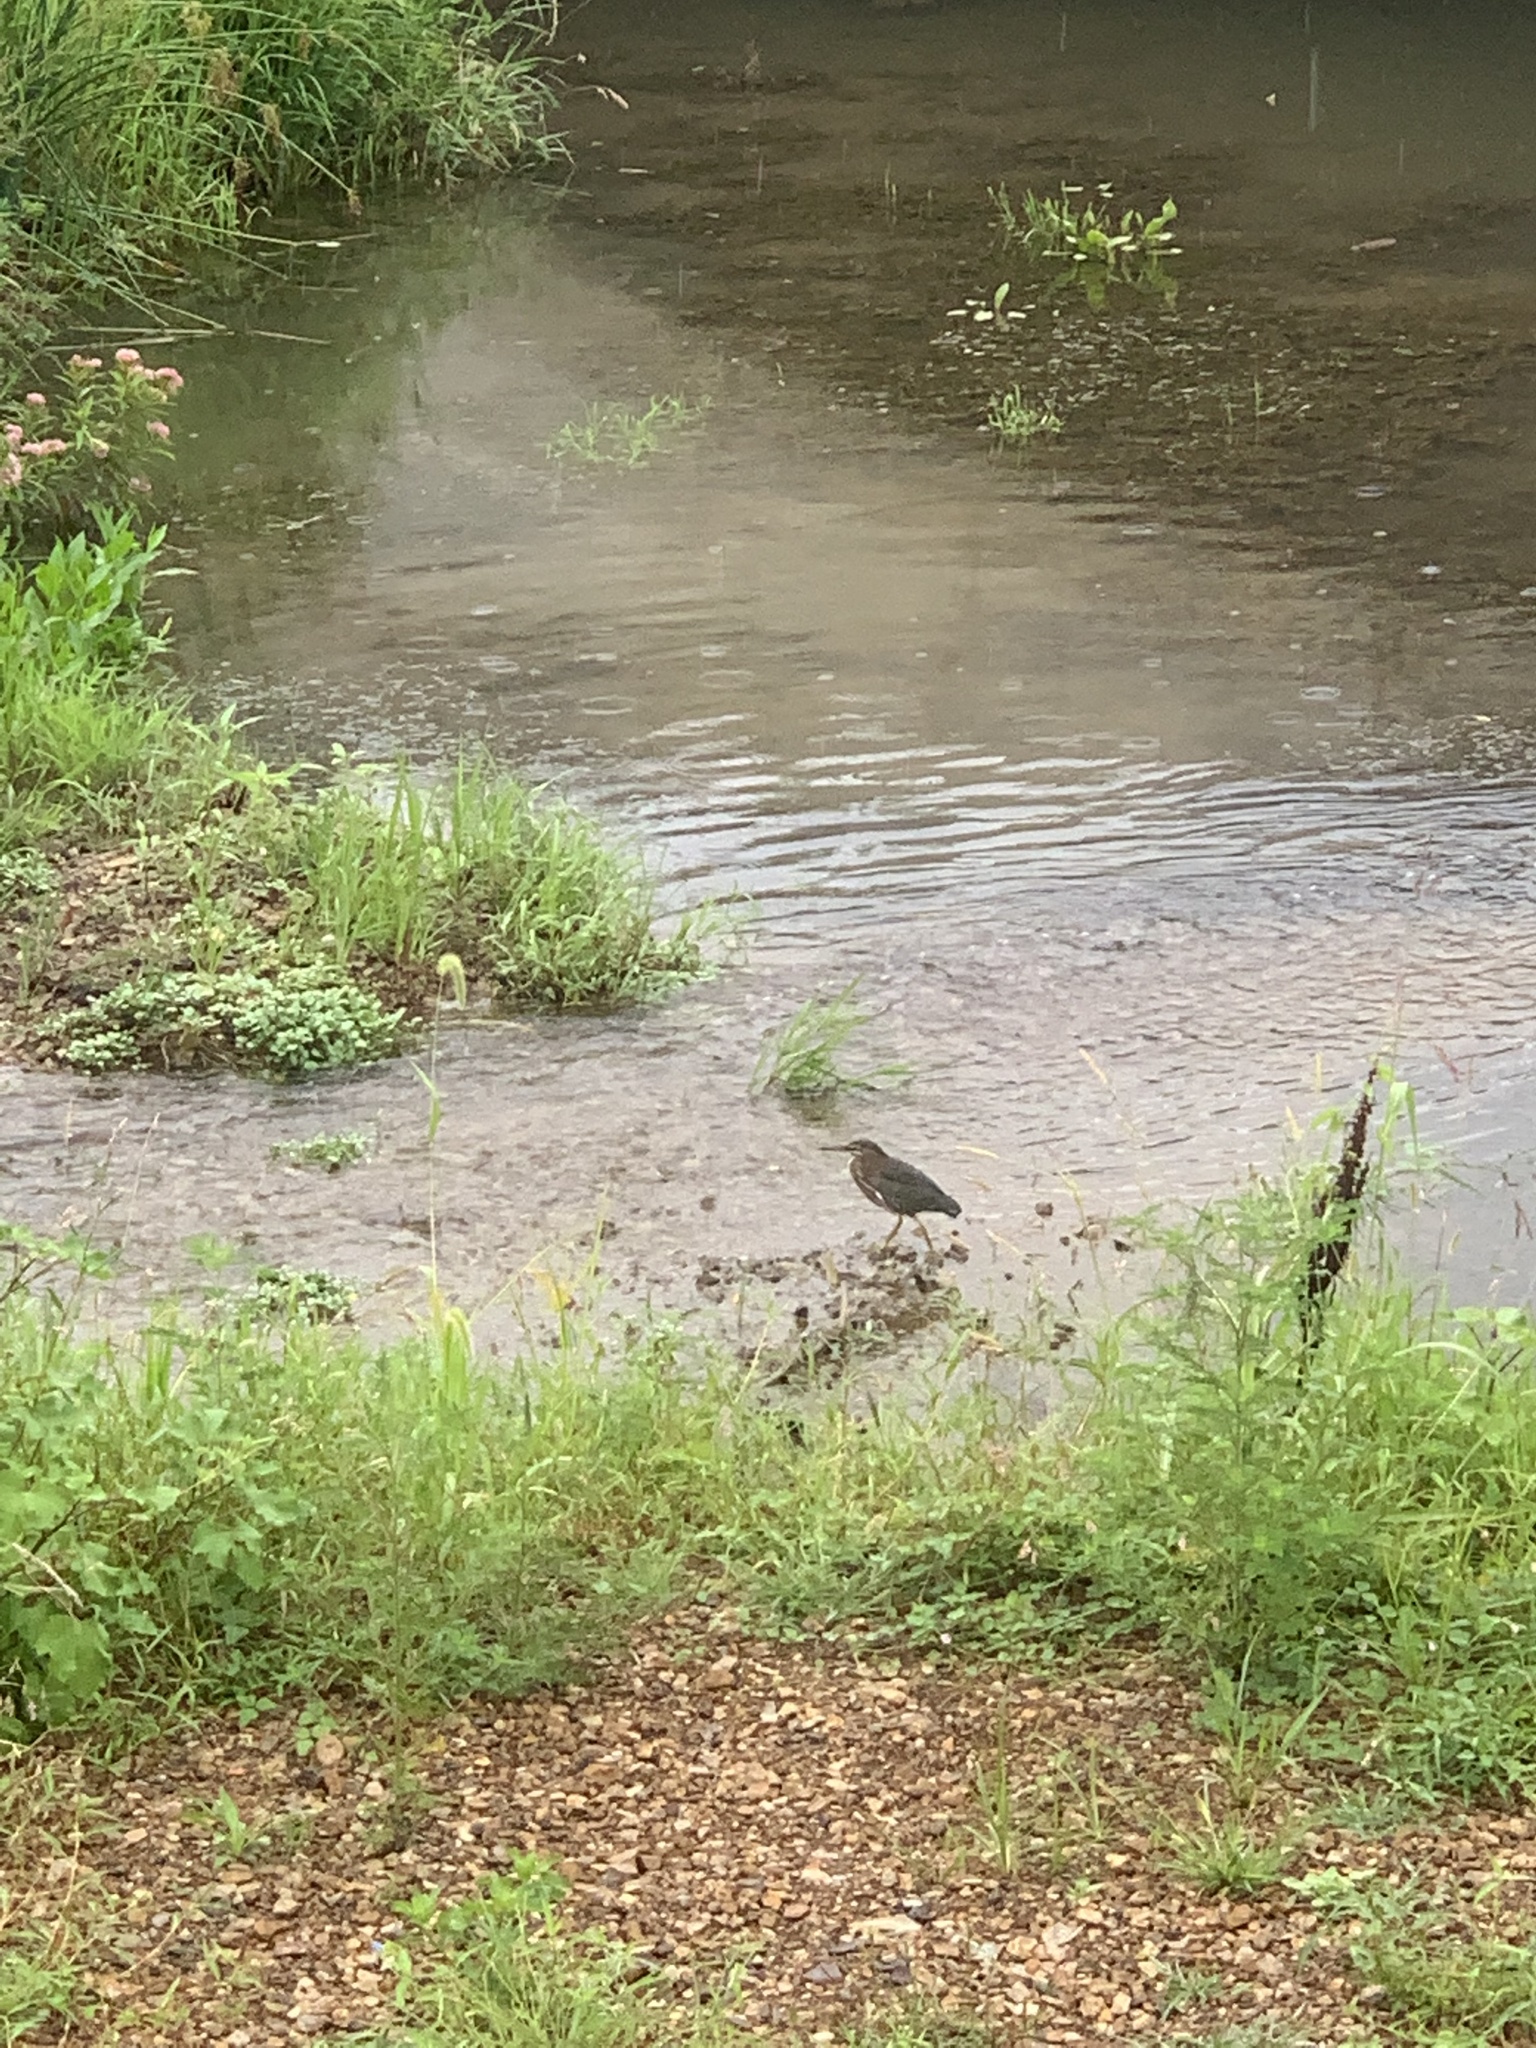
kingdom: Animalia
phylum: Chordata
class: Aves
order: Pelecaniformes
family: Ardeidae
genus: Butorides
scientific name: Butorides virescens
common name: Green heron
